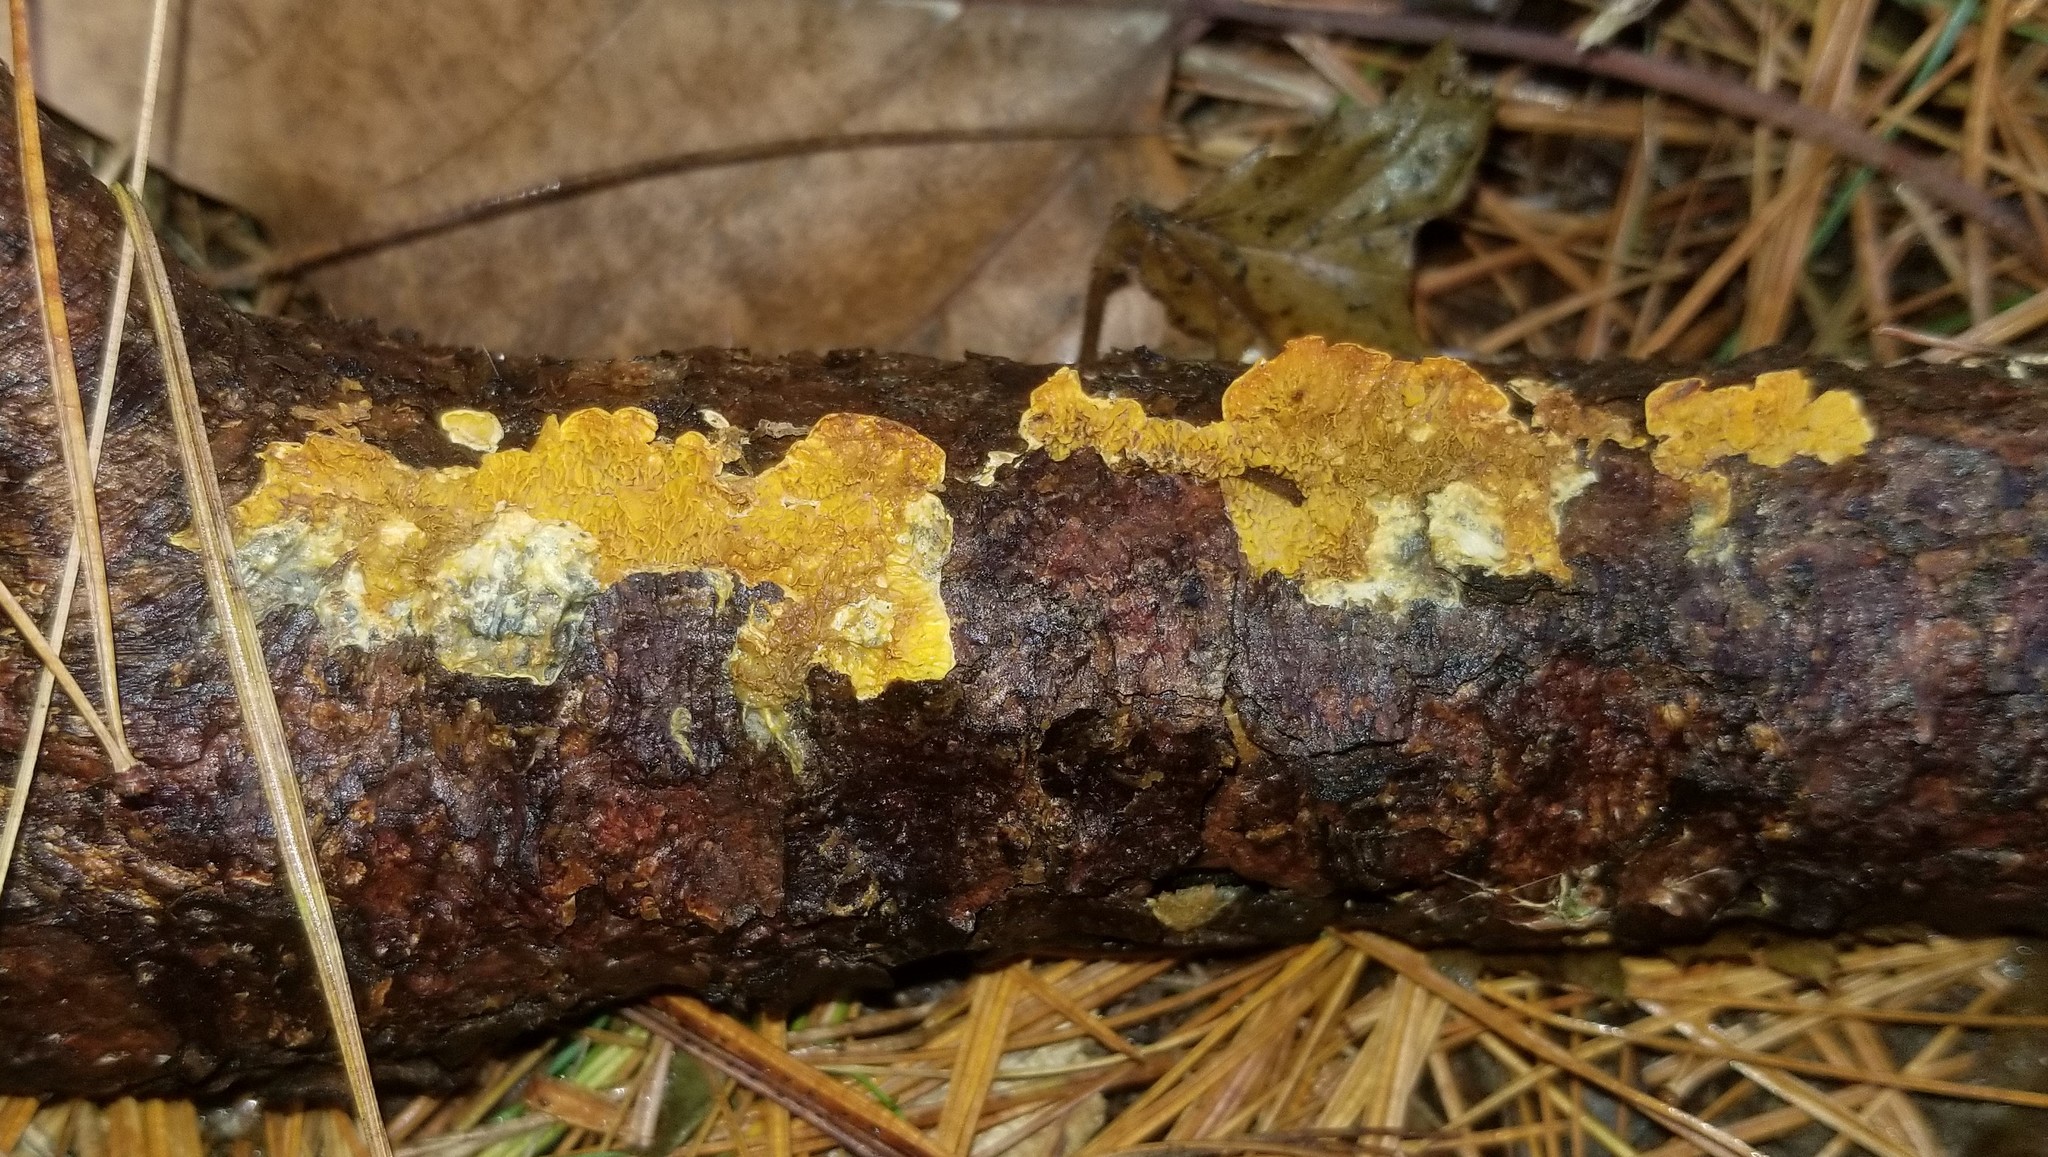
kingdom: Fungi
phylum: Basidiomycota
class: Agaricomycetes
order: Boletales
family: Tapinellaceae
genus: Pseudomerulius
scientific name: Pseudomerulius aureus
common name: Orange netcrust
